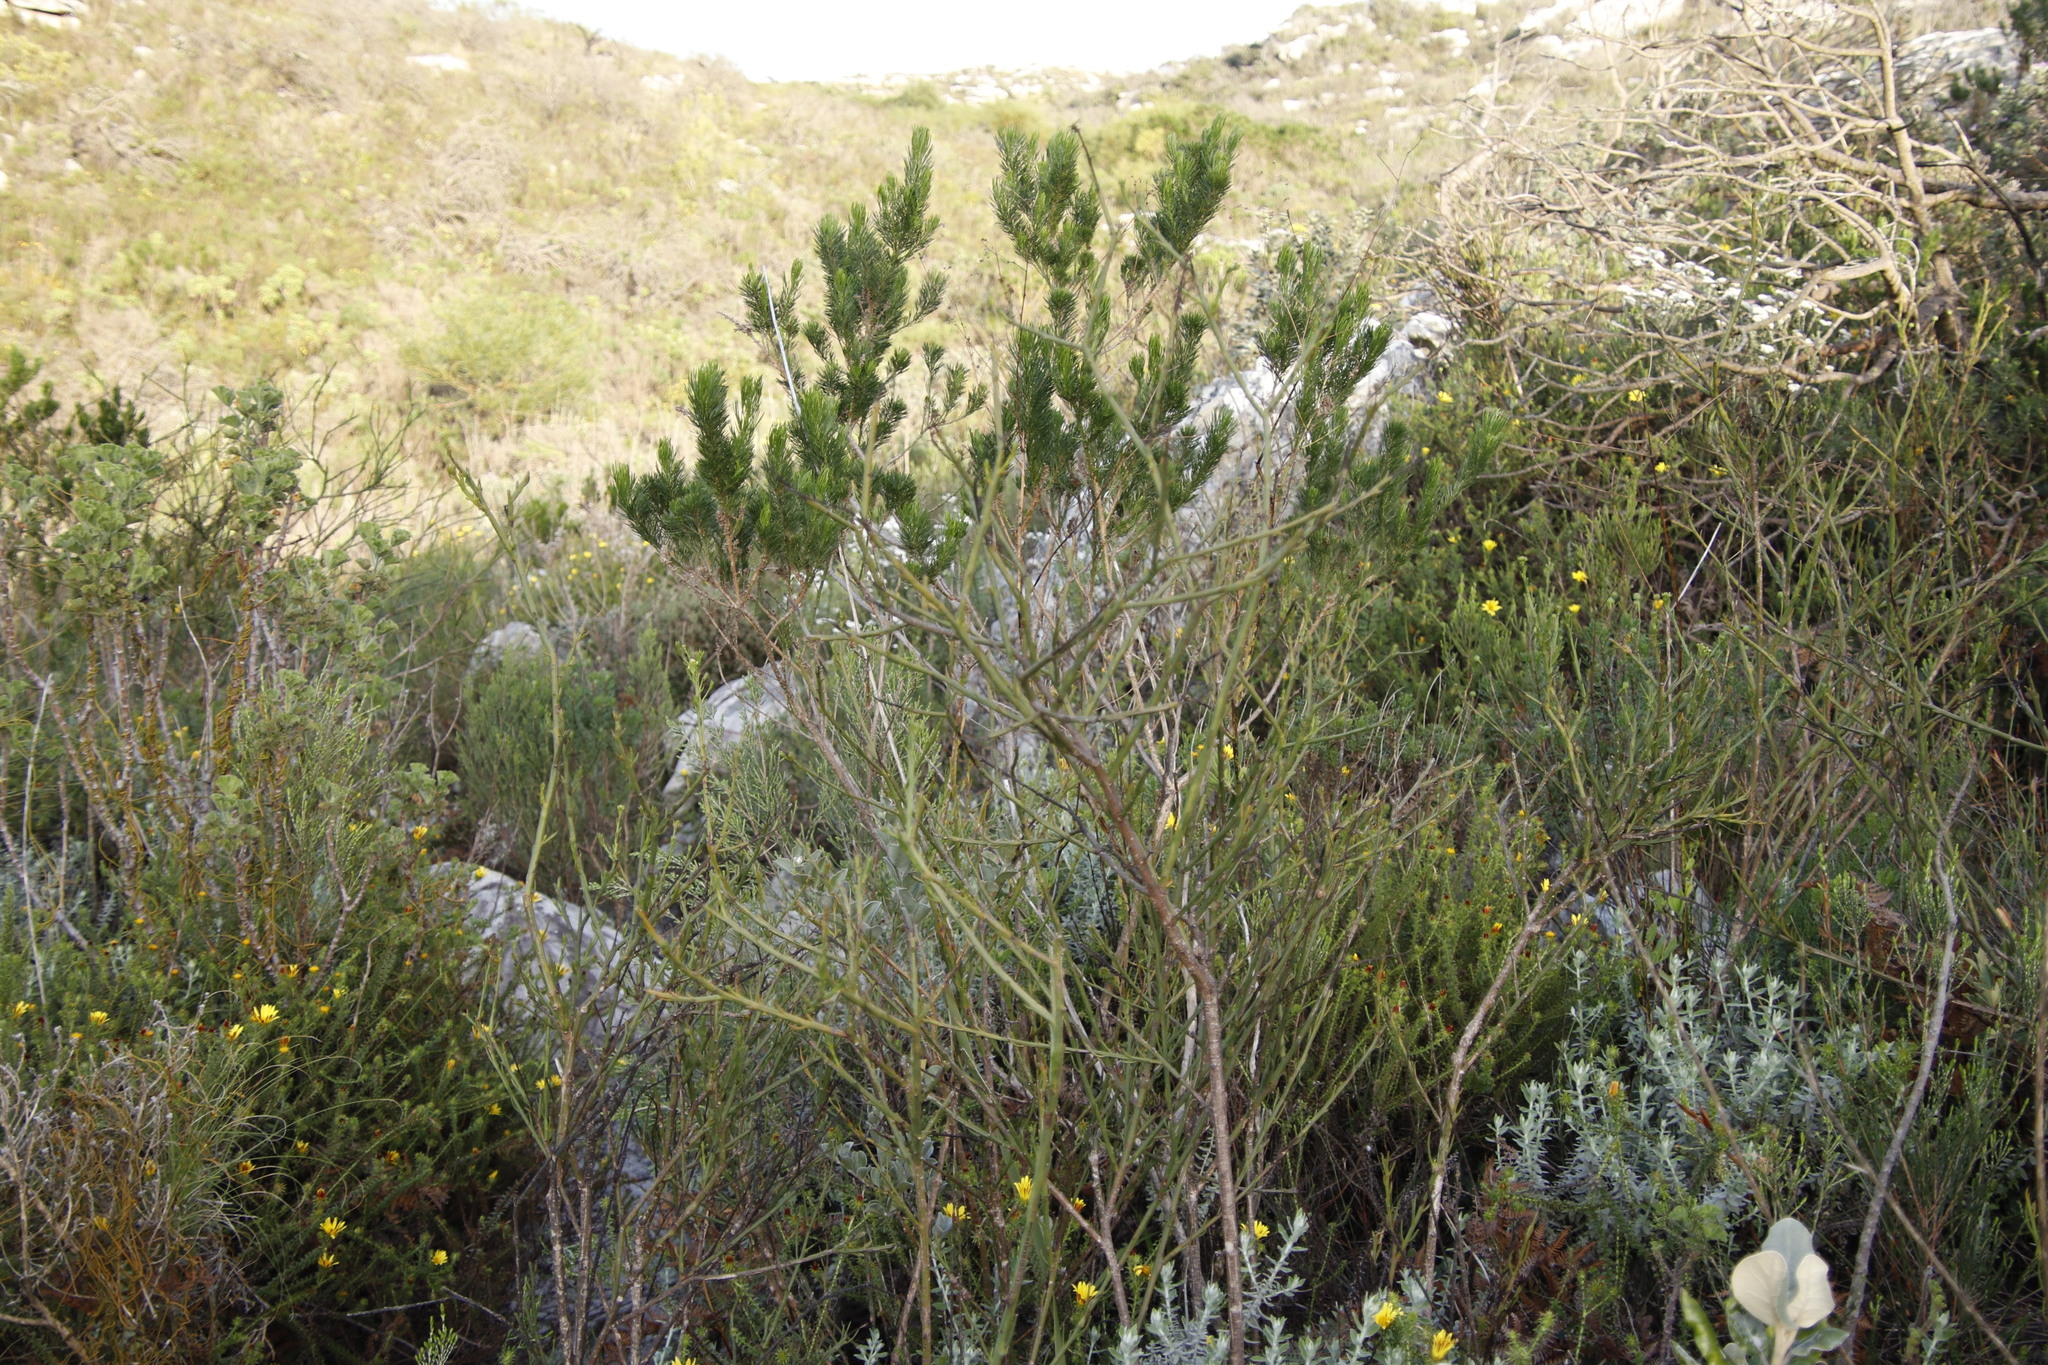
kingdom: Plantae
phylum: Tracheophyta
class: Magnoliopsida
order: Fabales
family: Fabaceae
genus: Psoralea
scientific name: Psoralea pinnata
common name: African scurfpea
